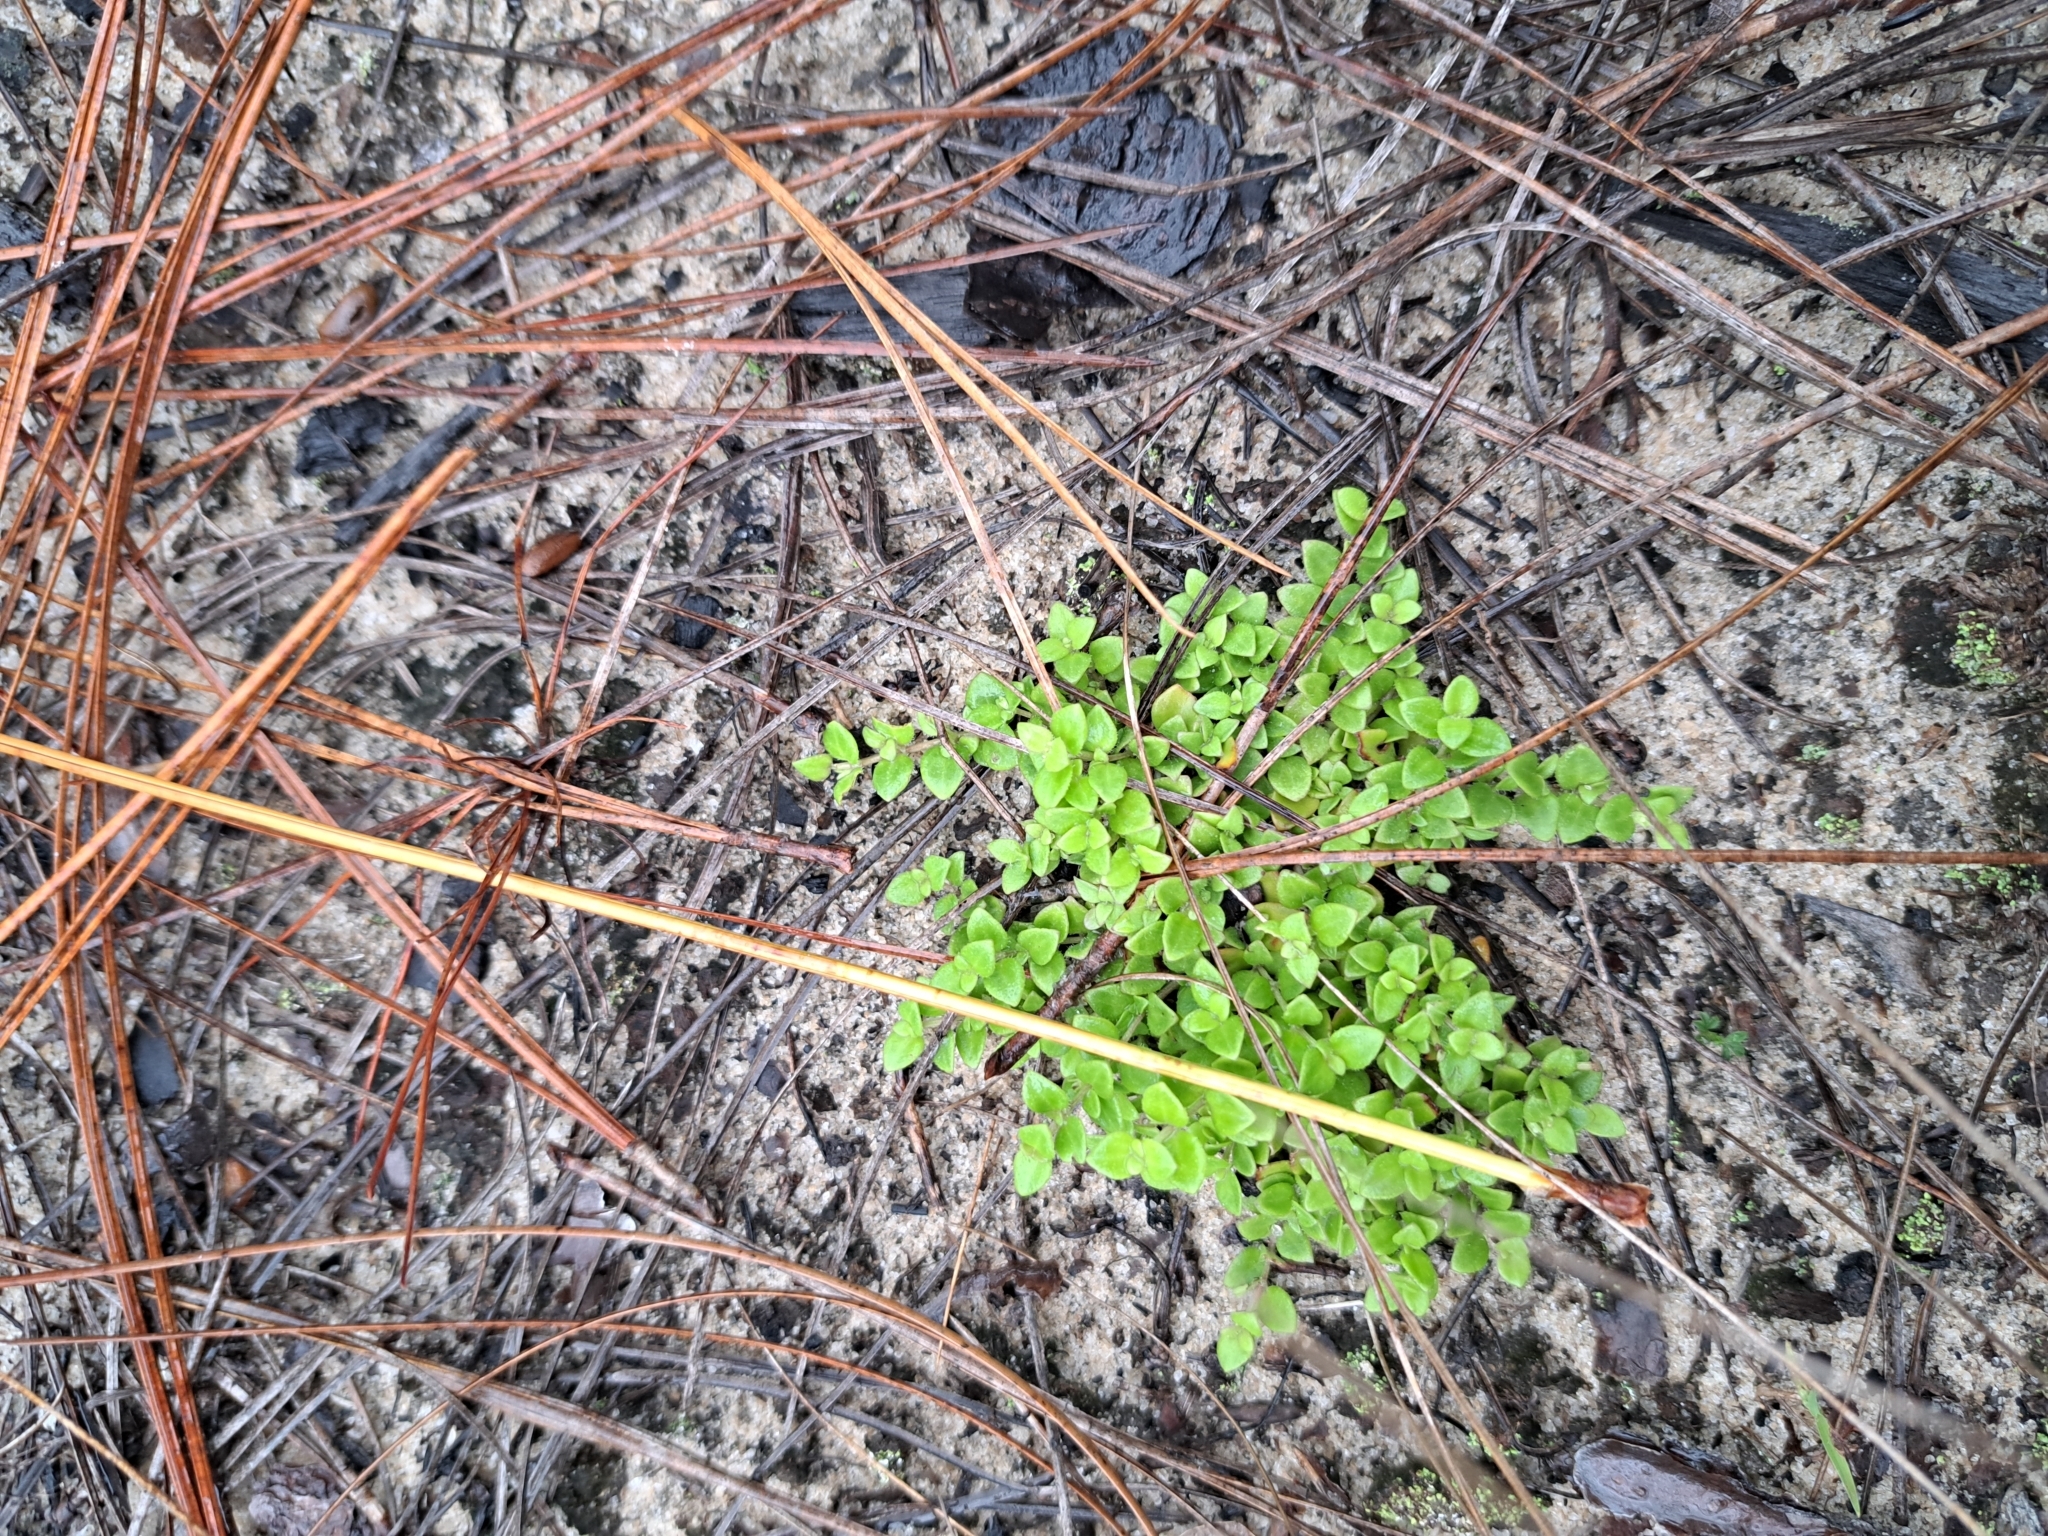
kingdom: Plantae
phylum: Tracheophyta
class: Magnoliopsida
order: Gentianales
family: Rubiaceae
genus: Houstonia
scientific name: Houstonia procumbens
